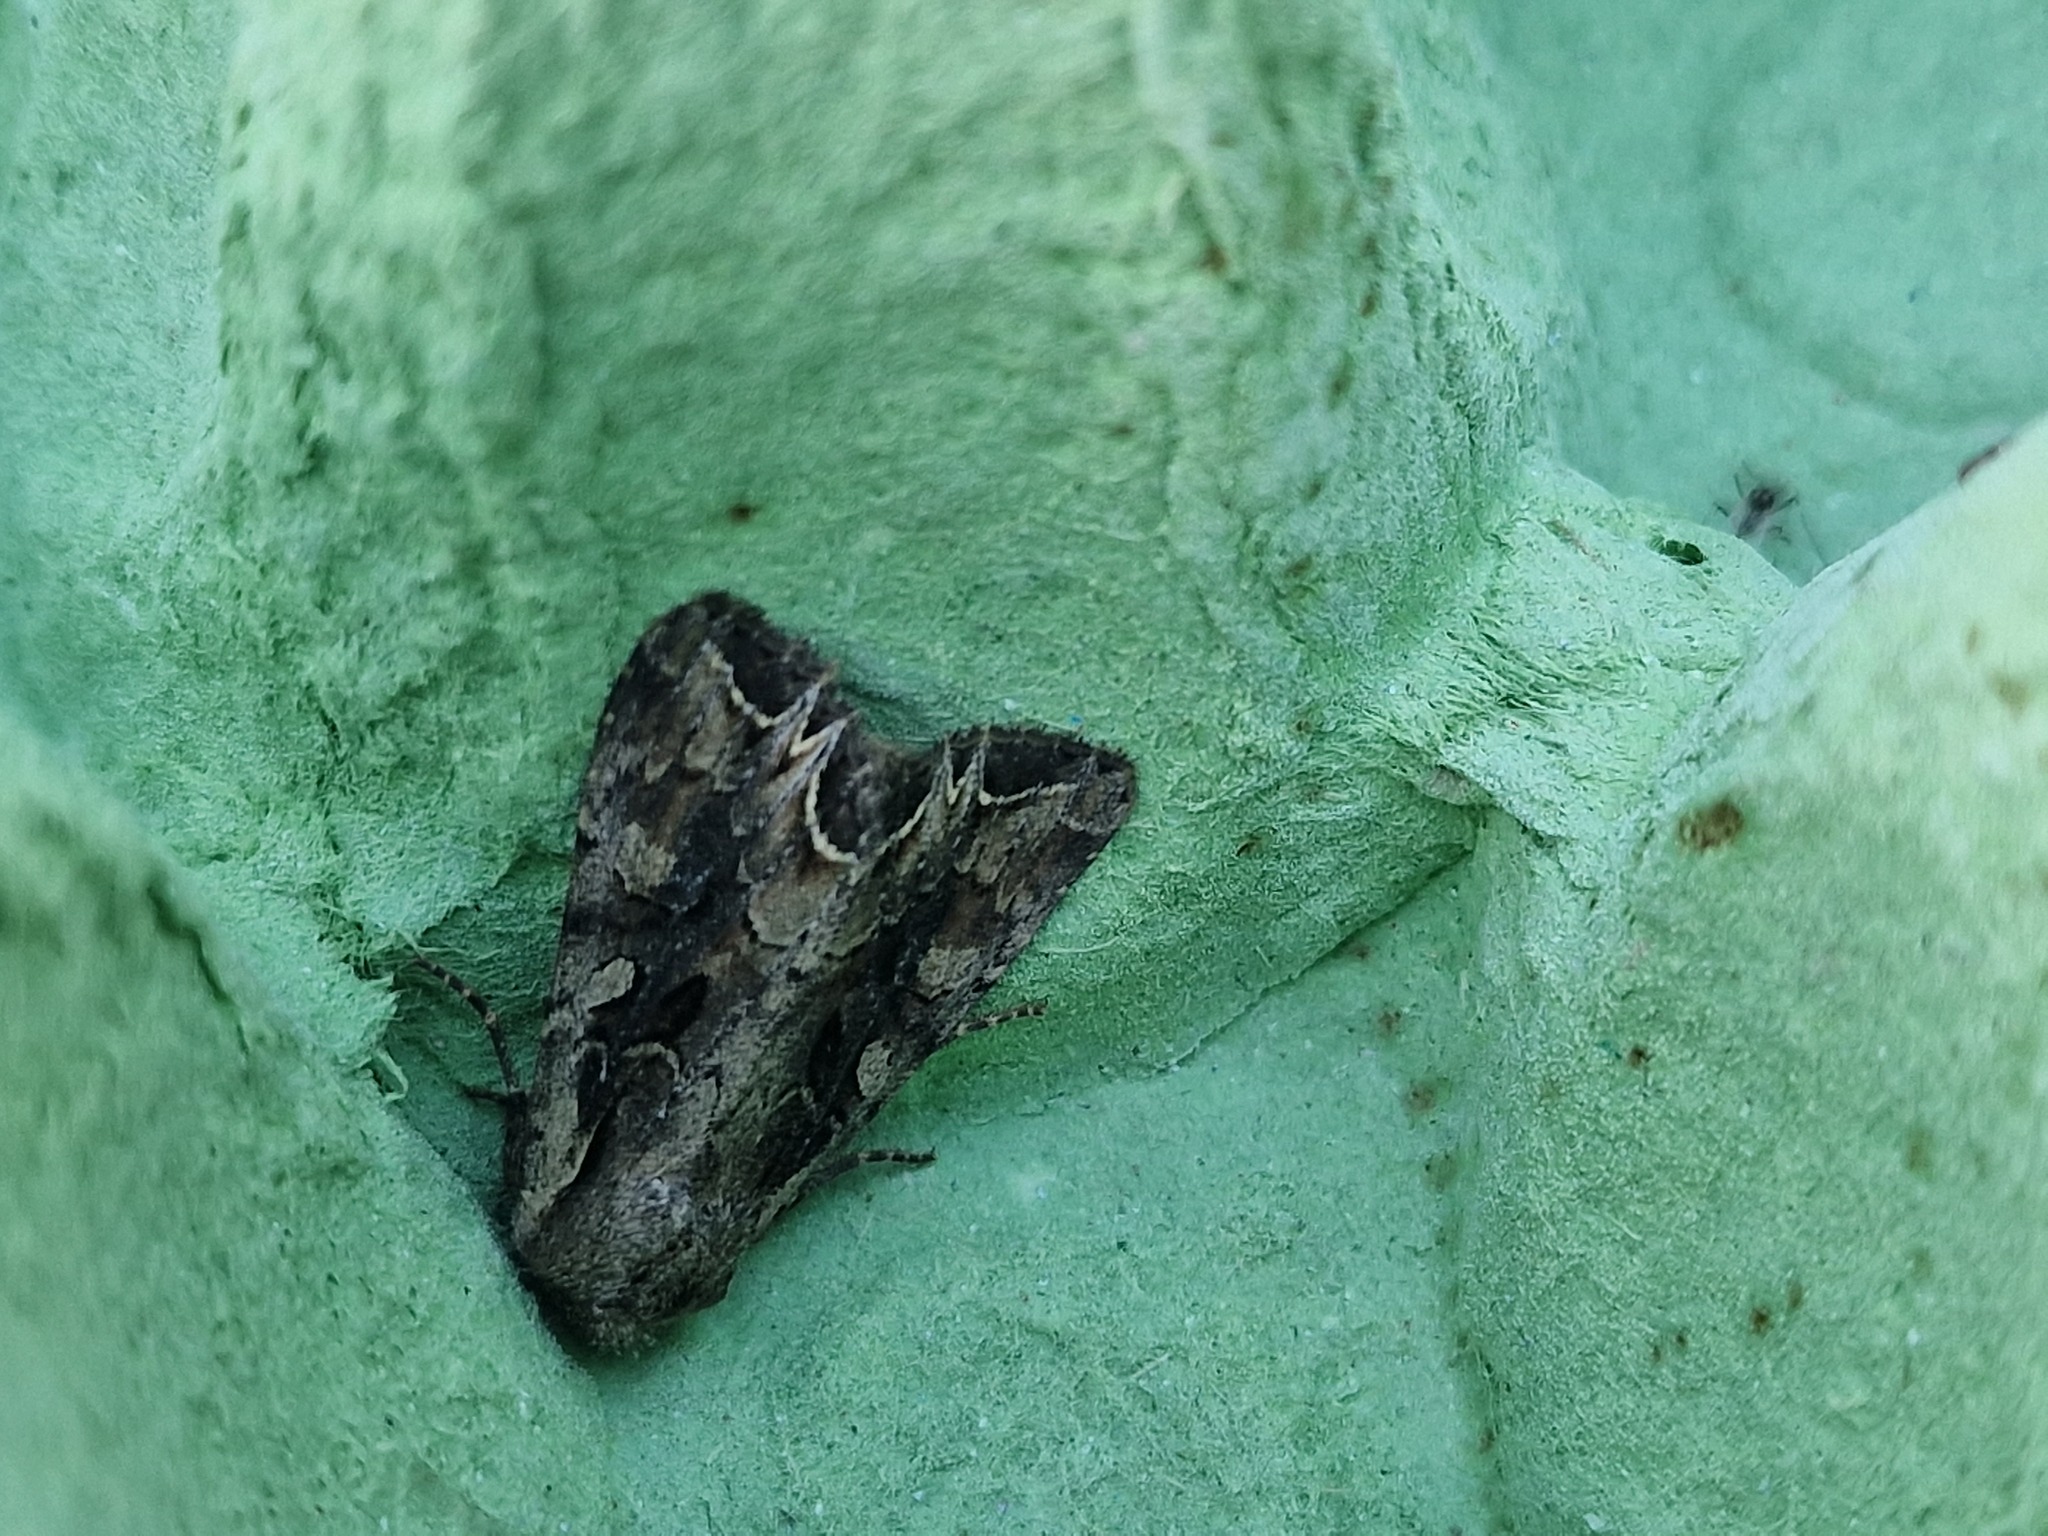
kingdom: Animalia
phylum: Arthropoda
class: Insecta
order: Lepidoptera
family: Noctuidae
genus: Lacanobia
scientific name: Lacanobia suasa
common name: Dog's tooth
